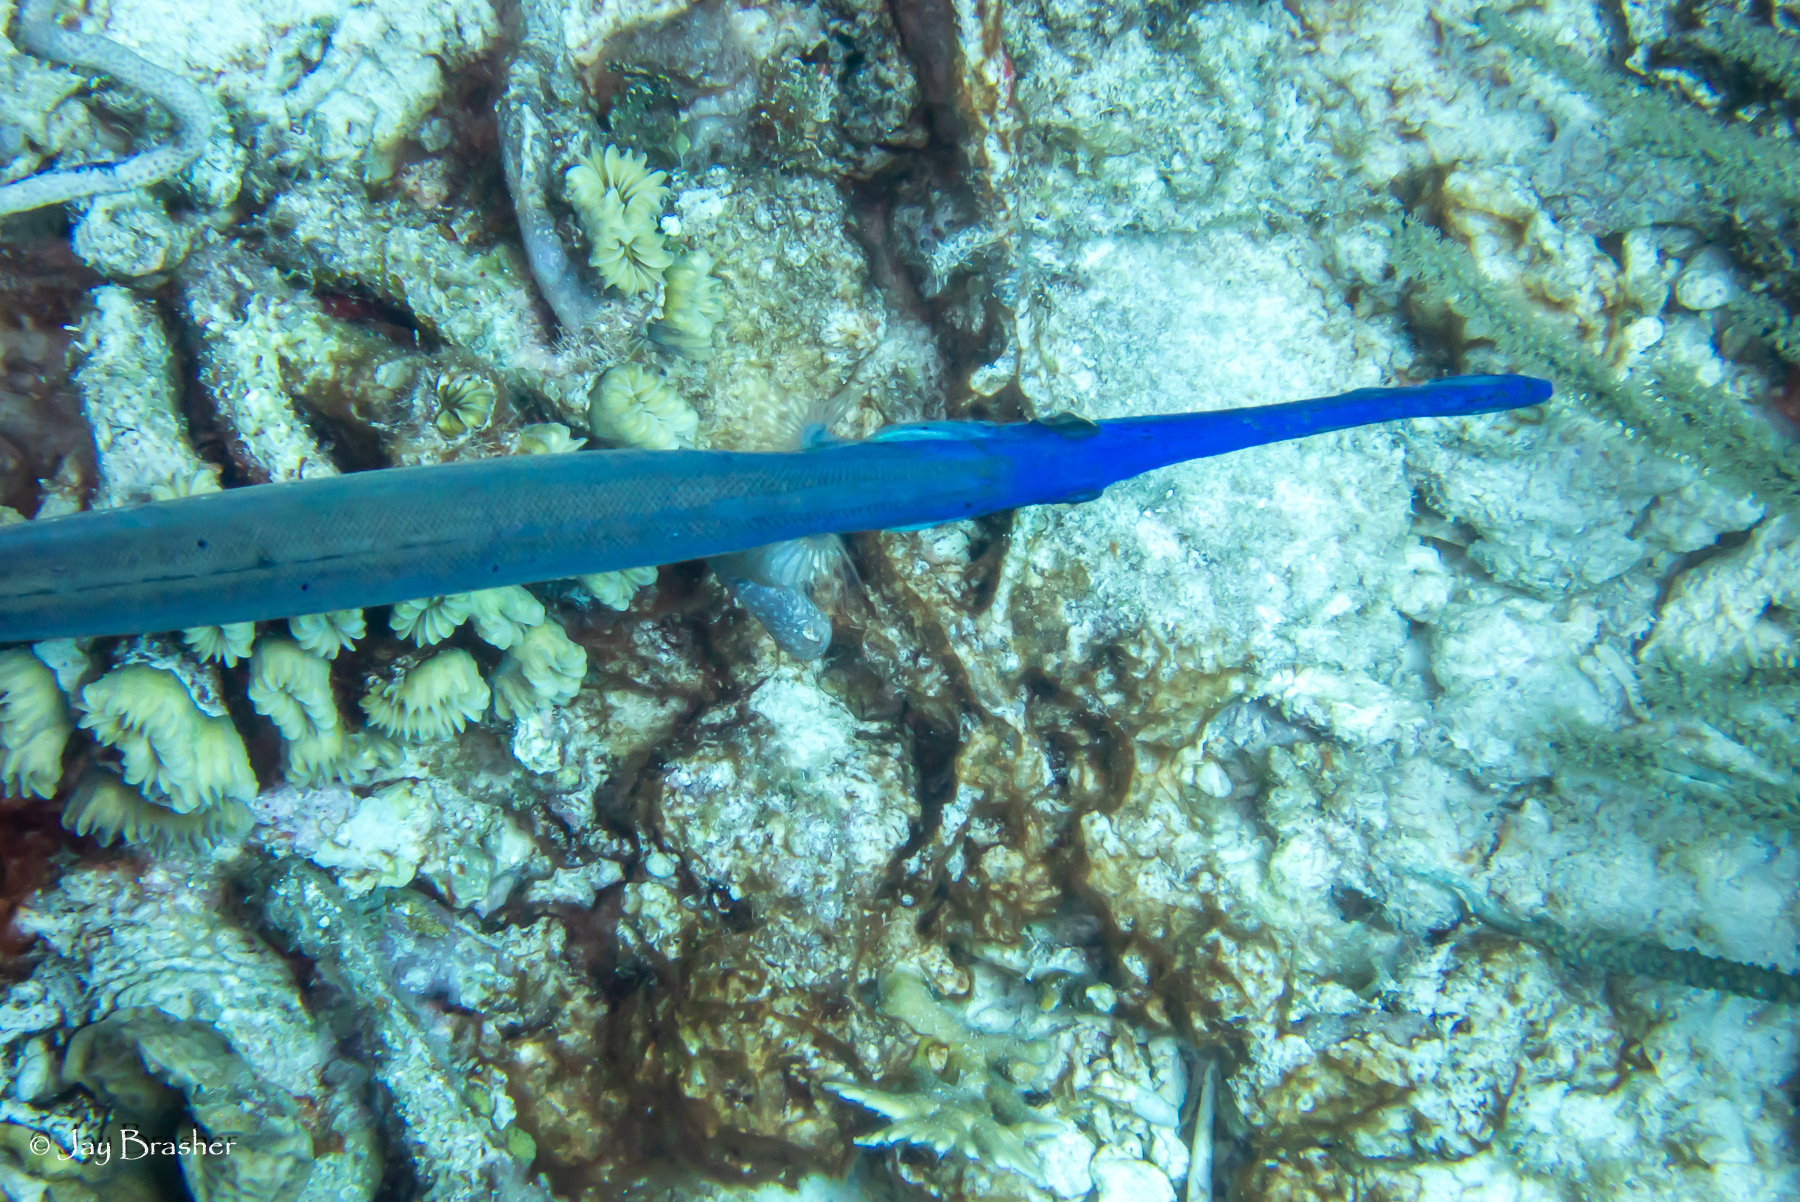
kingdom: Animalia
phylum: Chordata
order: Syngnathiformes
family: Aulostomidae
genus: Aulostomus
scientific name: Aulostomus maculatus
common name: West atlantic trumpetfish
